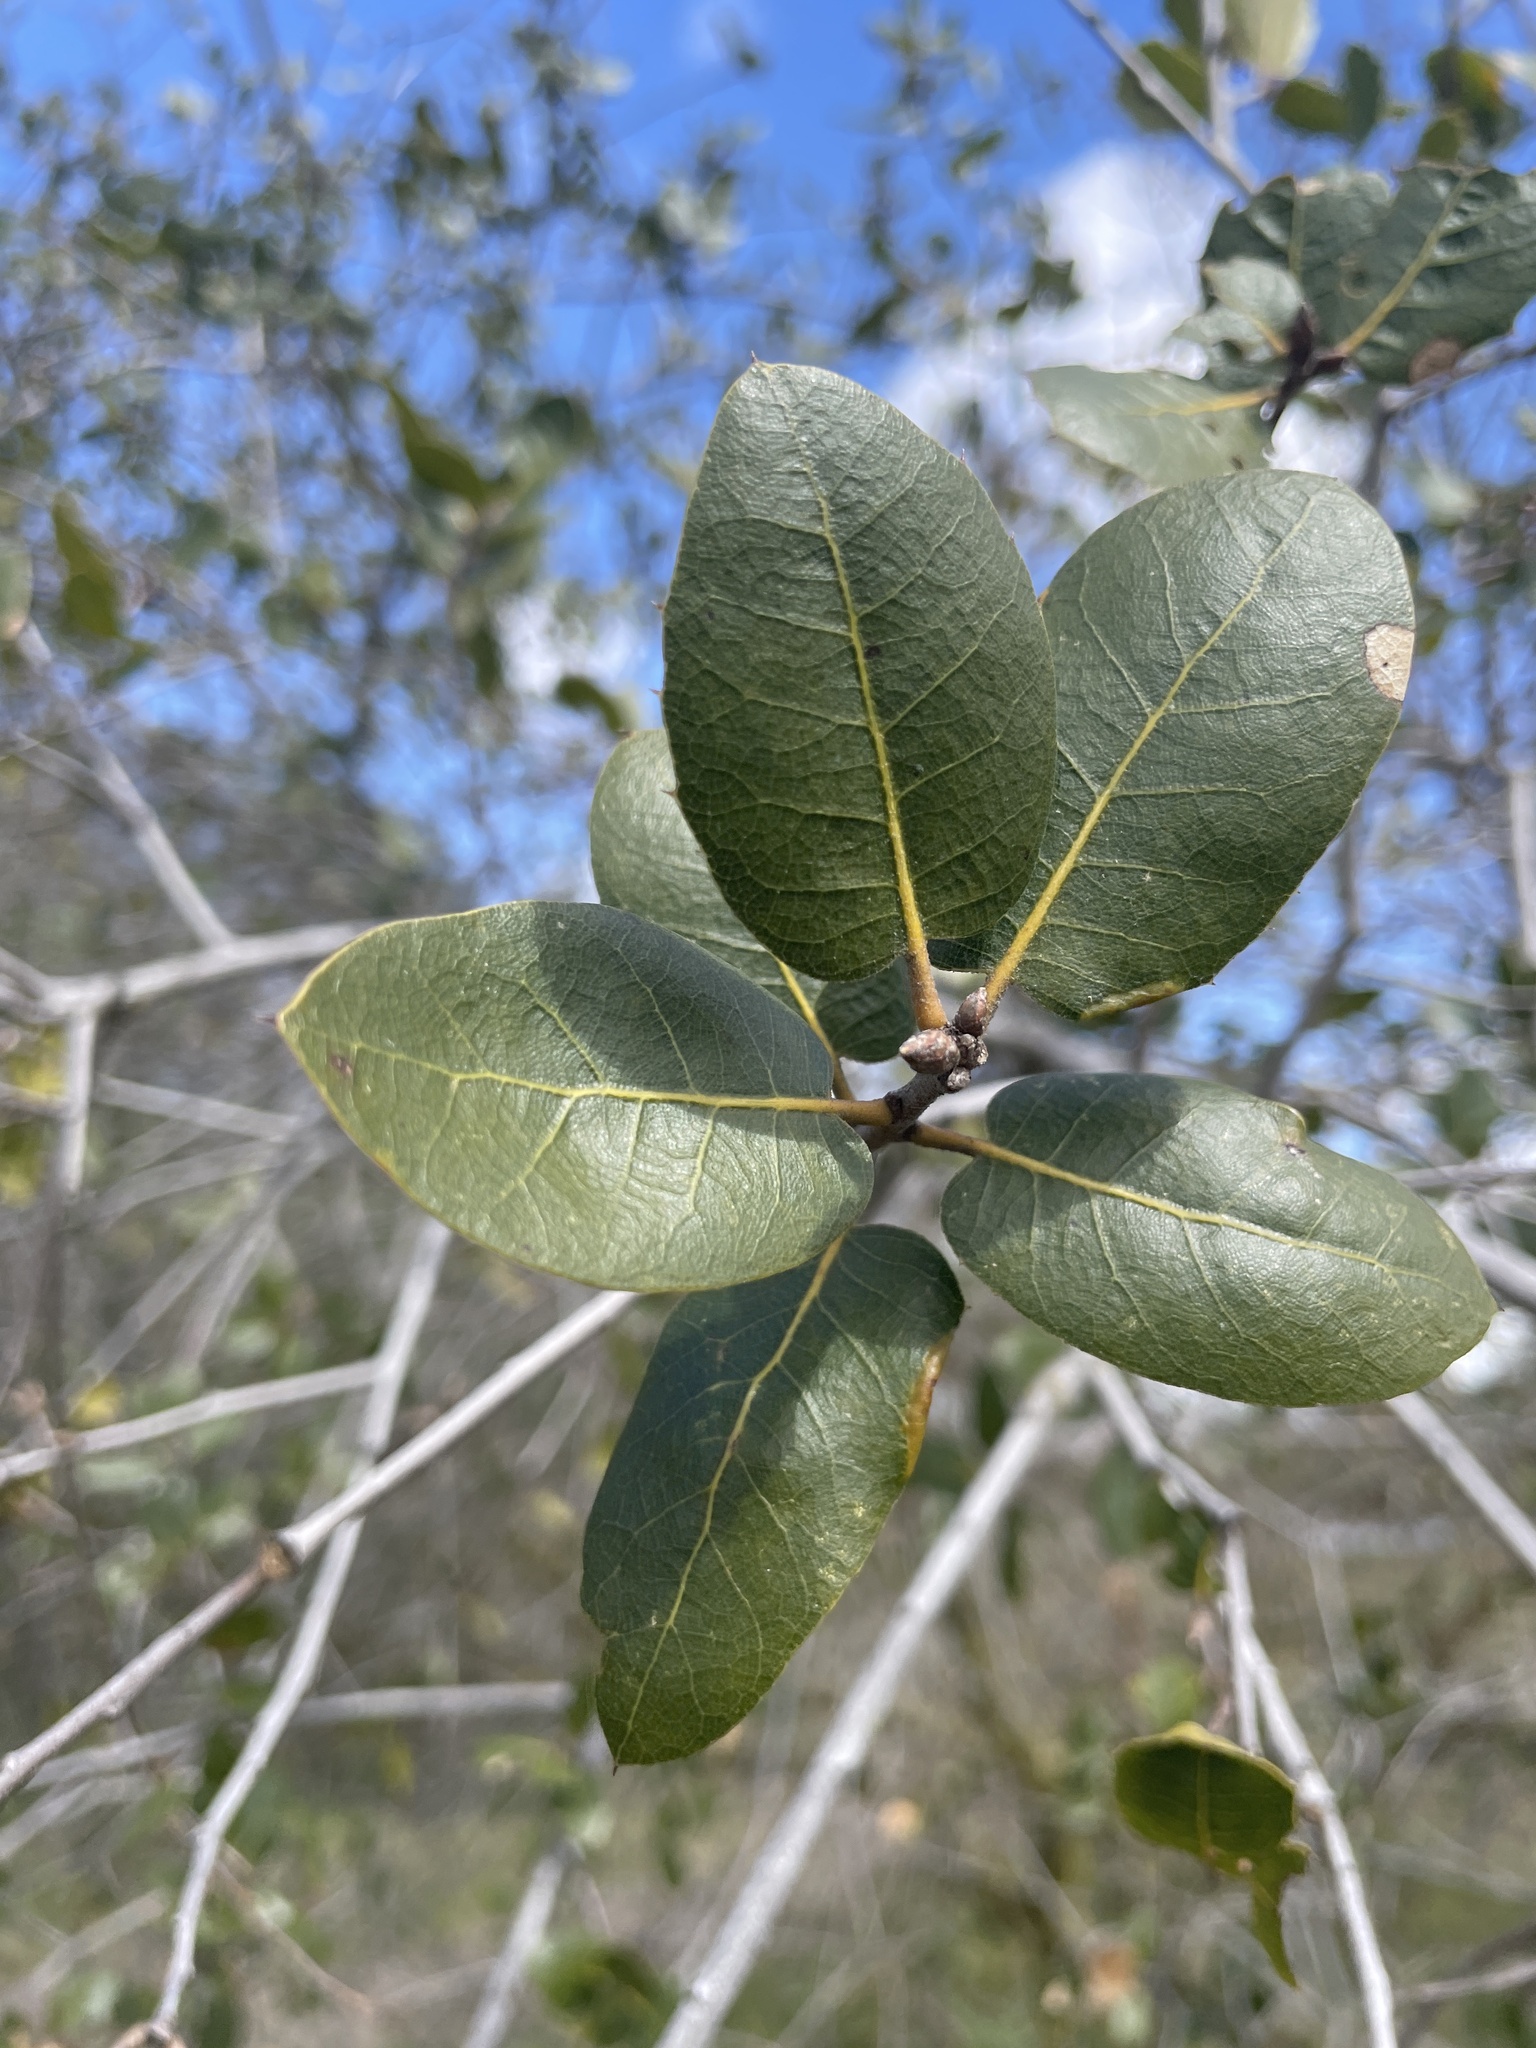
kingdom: Plantae
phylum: Tracheophyta
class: Magnoliopsida
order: Fagales
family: Fagaceae
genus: Quercus
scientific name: Quercus wislizeni
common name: Interior live oak
